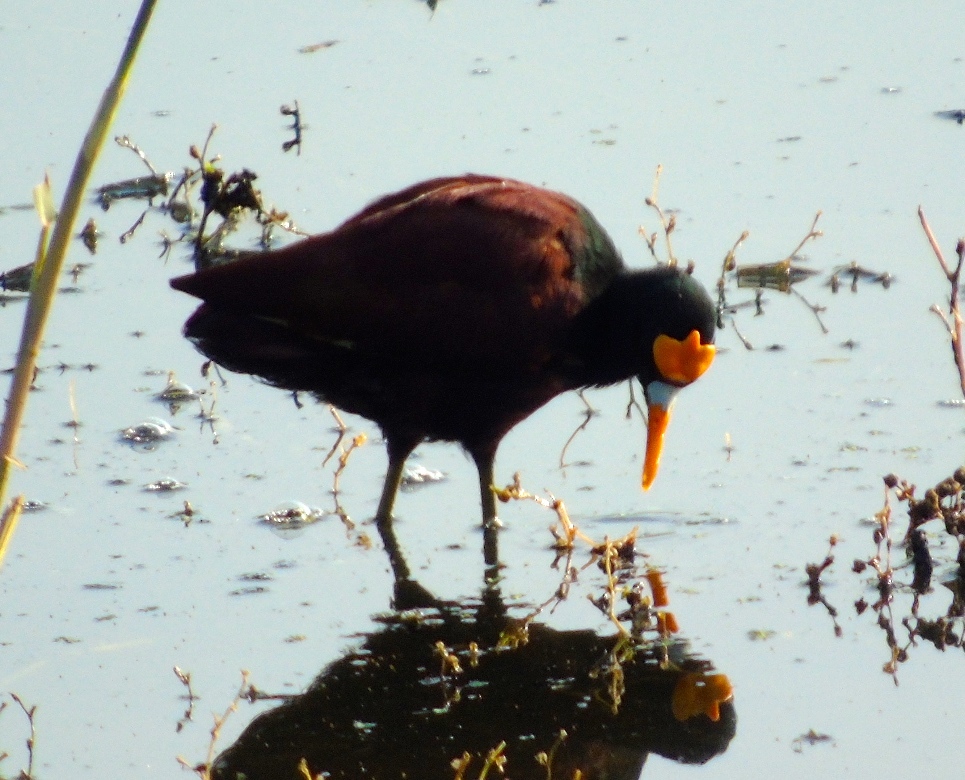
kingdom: Animalia
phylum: Chordata
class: Aves
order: Charadriiformes
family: Jacanidae
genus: Jacana
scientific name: Jacana spinosa
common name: Northern jacana
